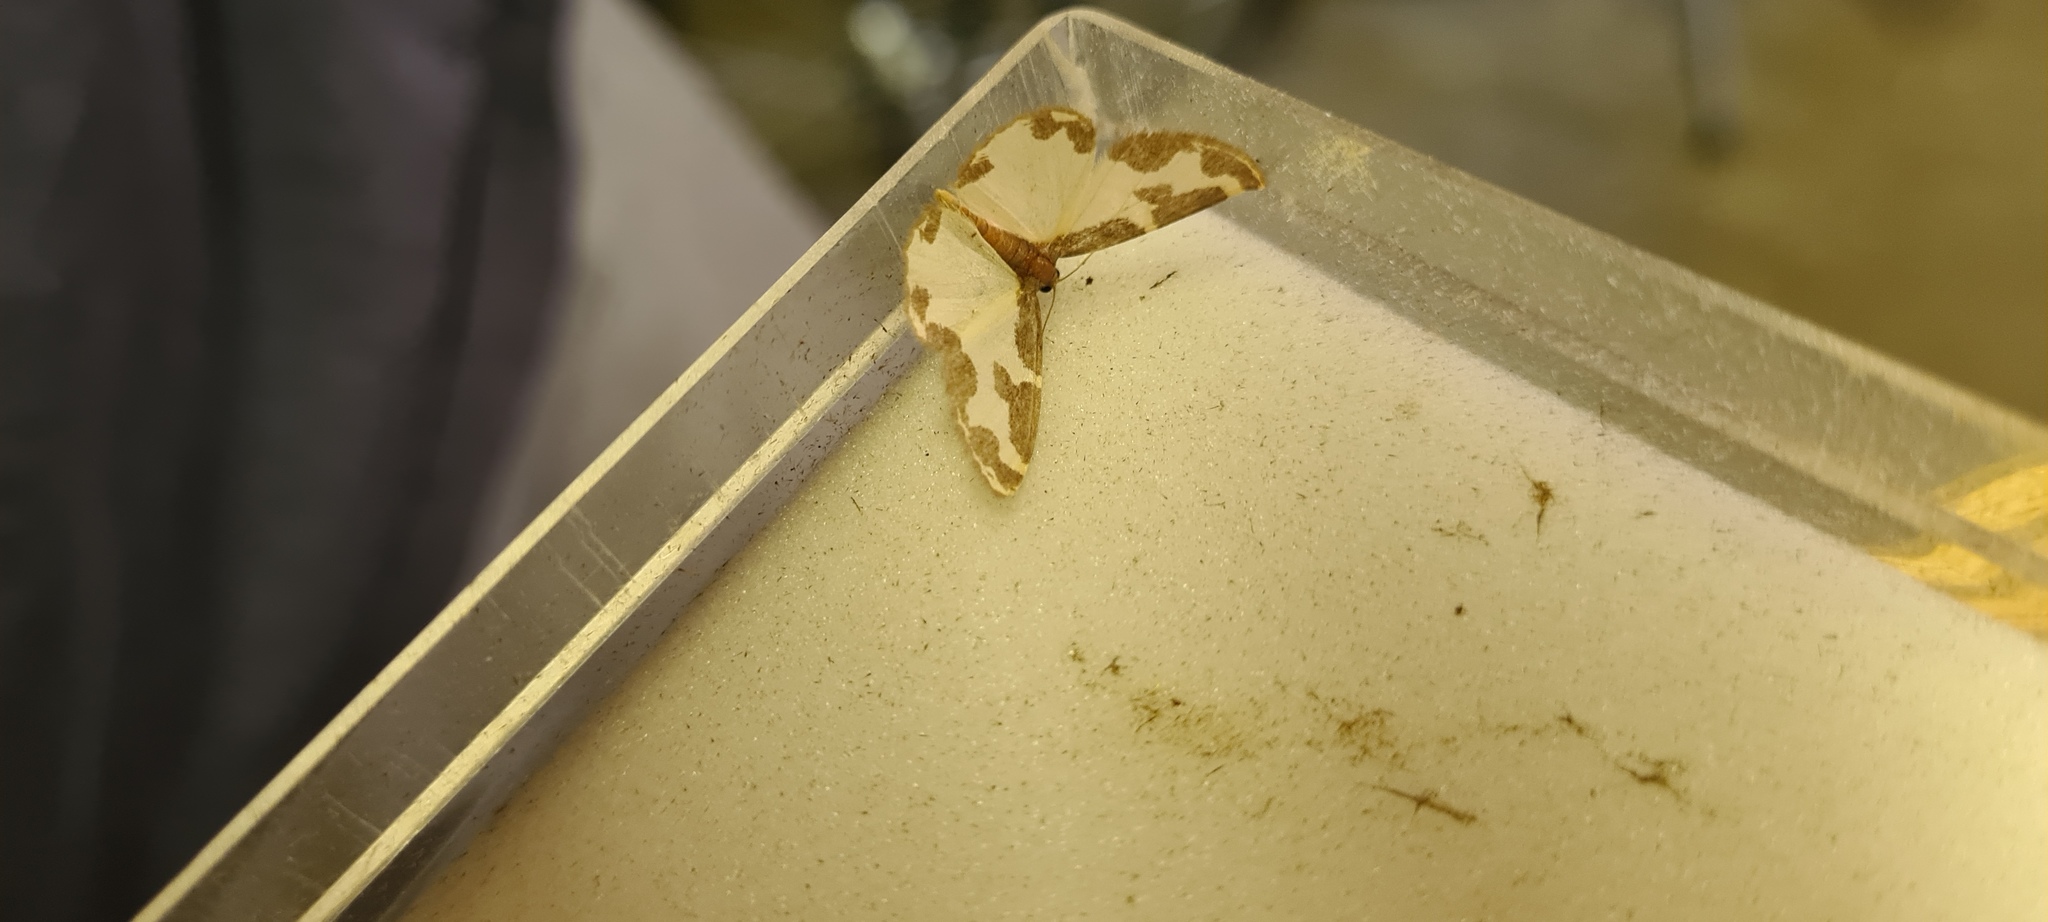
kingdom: Animalia
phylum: Arthropoda
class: Insecta
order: Lepidoptera
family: Geometridae
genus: Lomaspilis
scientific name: Lomaspilis marginata
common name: Clouded border
